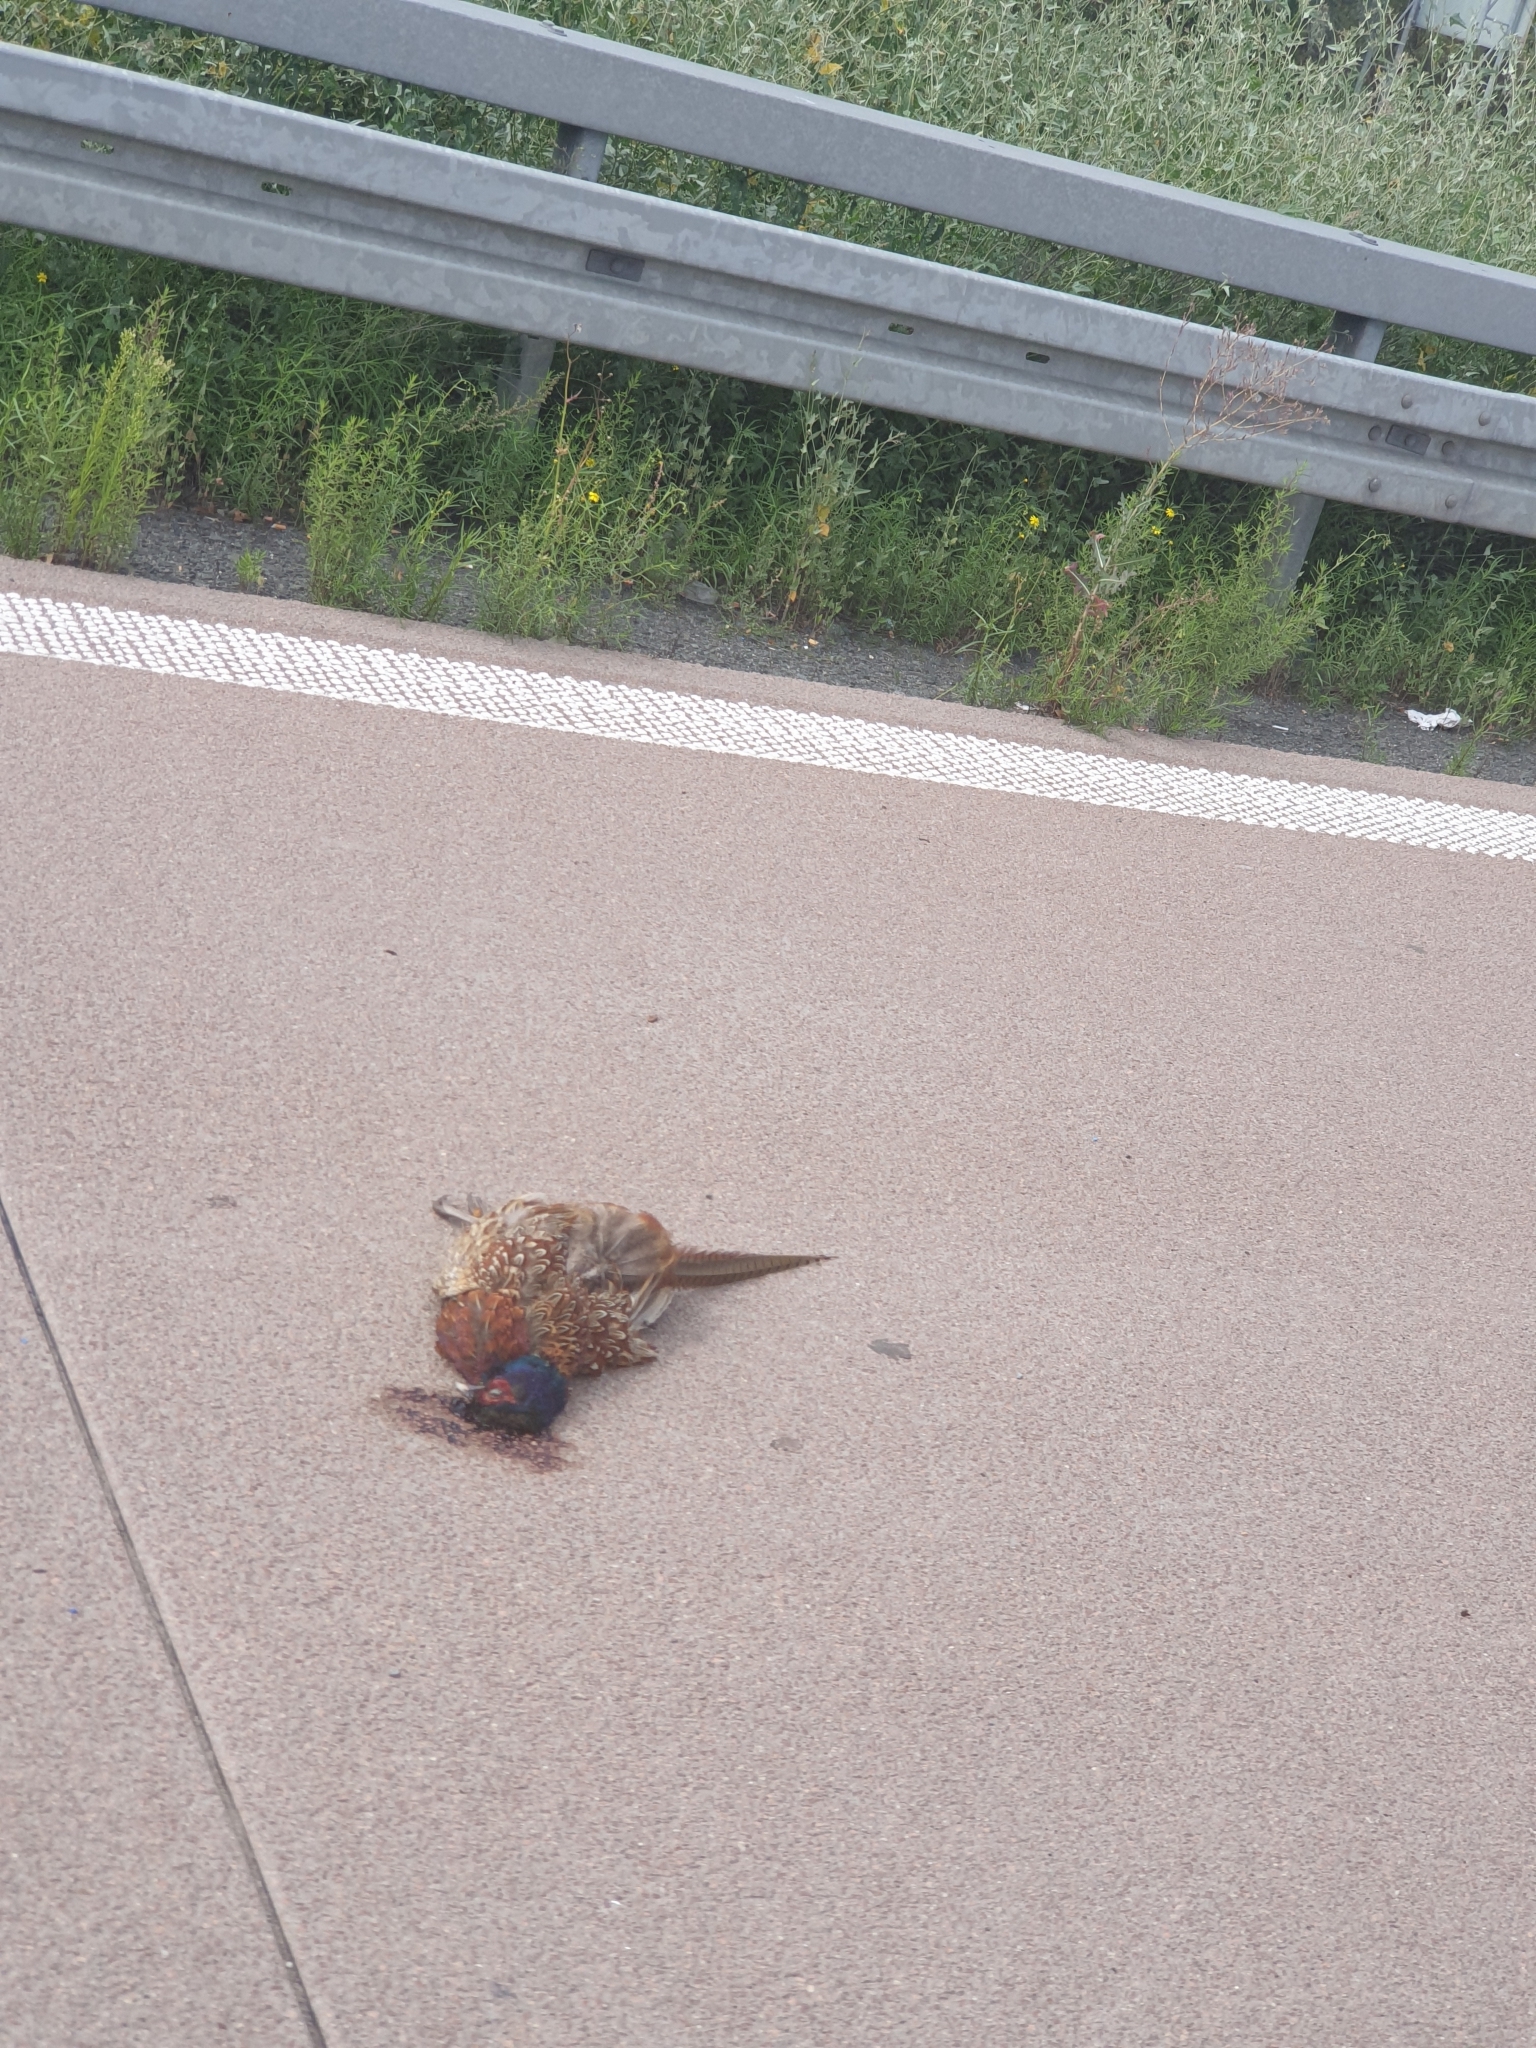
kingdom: Animalia
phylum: Chordata
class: Aves
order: Galliformes
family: Phasianidae
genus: Phasianus
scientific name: Phasianus colchicus
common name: Common pheasant
